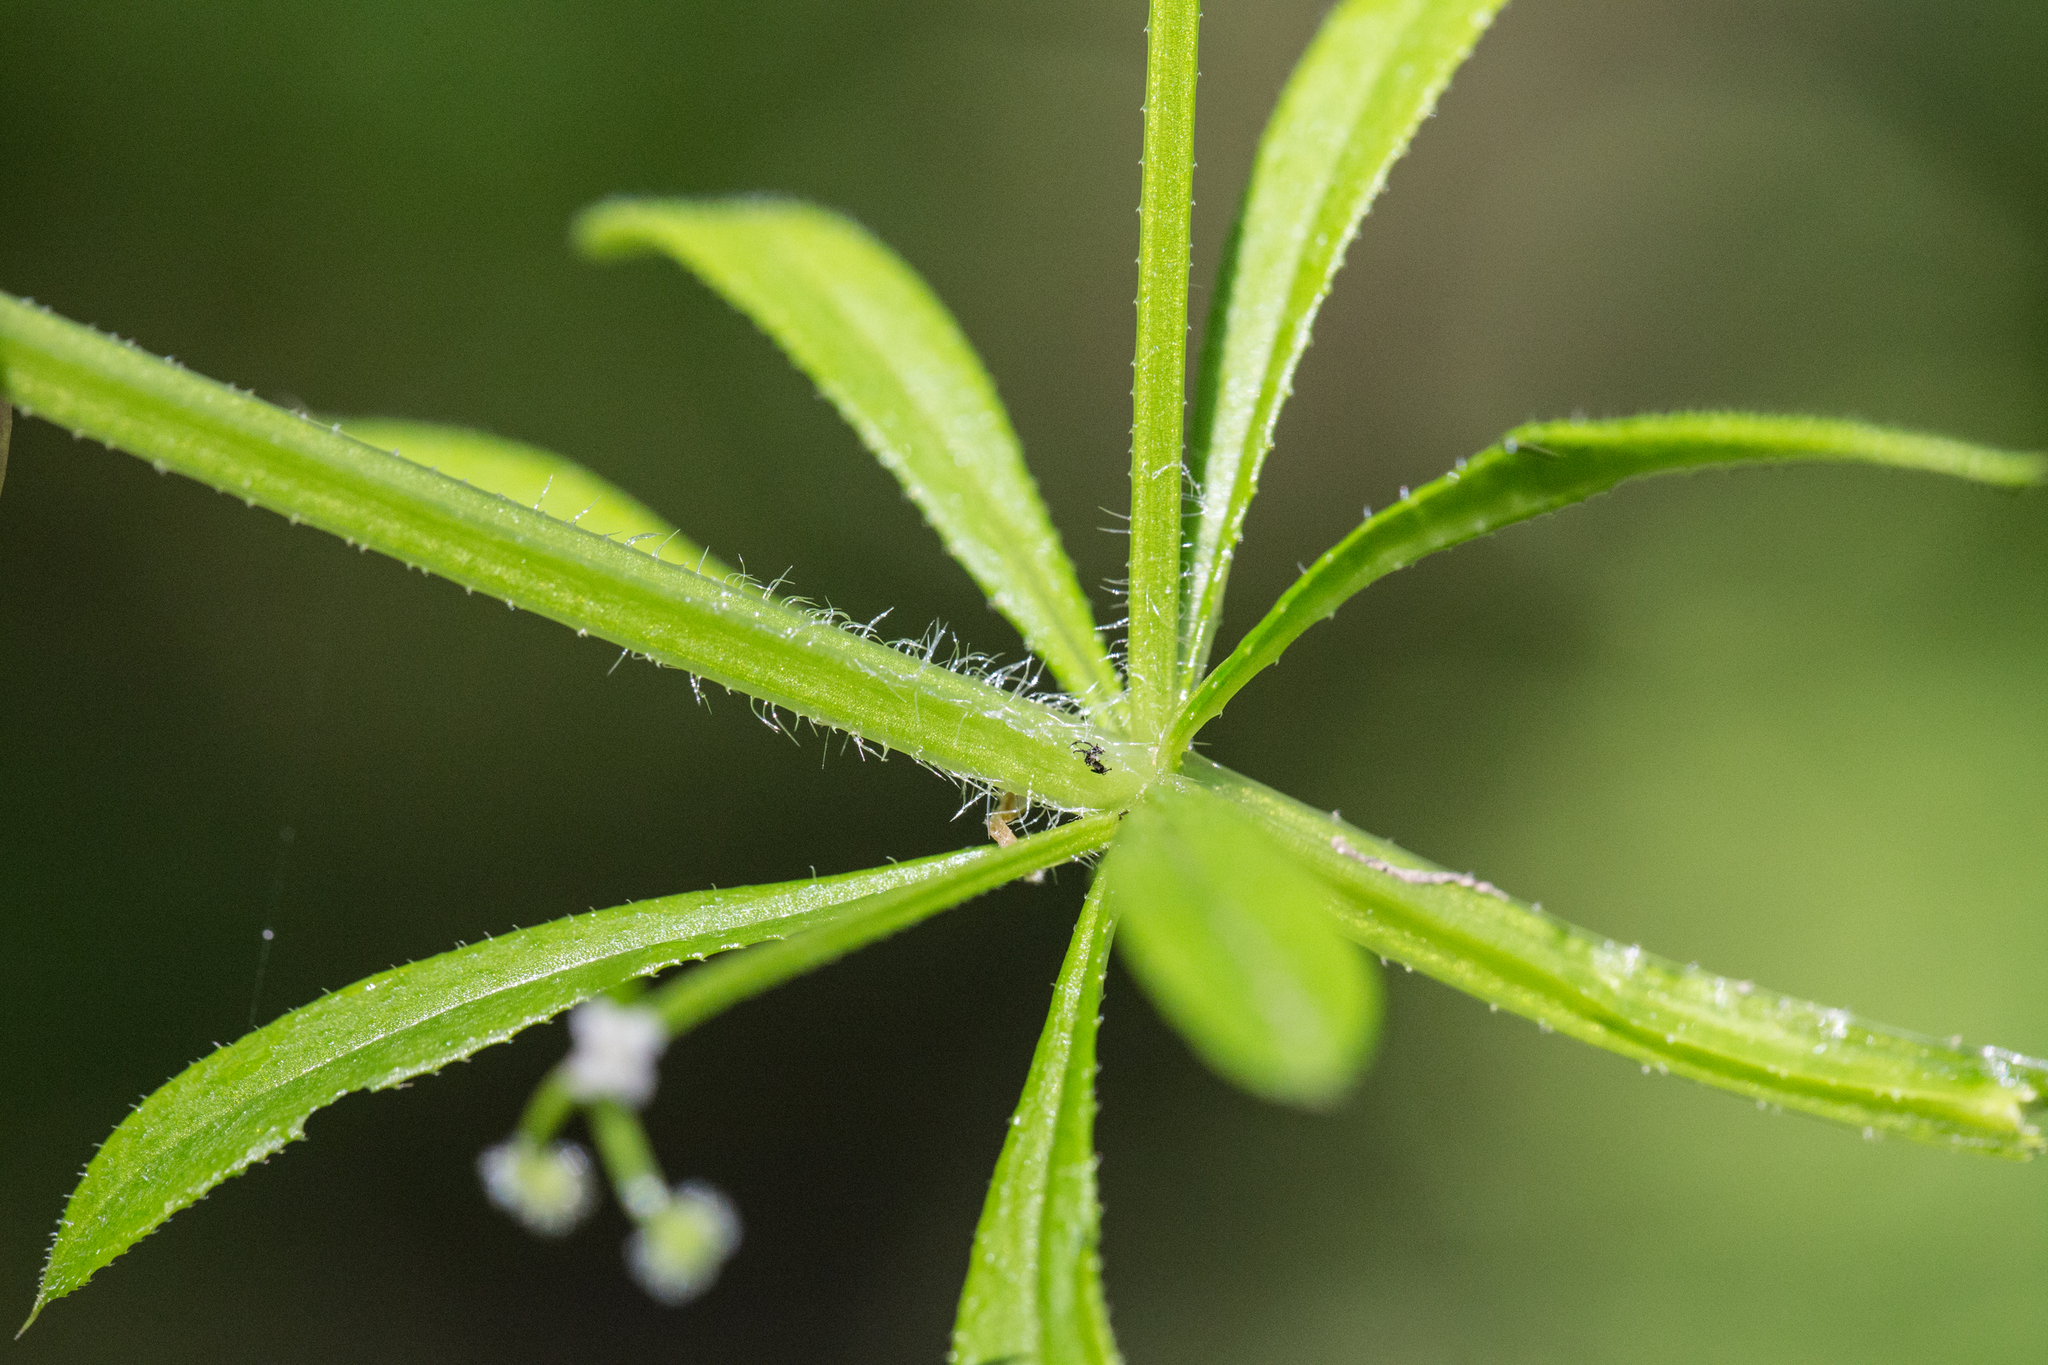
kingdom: Plantae
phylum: Tracheophyta
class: Magnoliopsida
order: Gentianales
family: Rubiaceae
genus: Galium
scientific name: Galium aparine
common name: Cleavers
